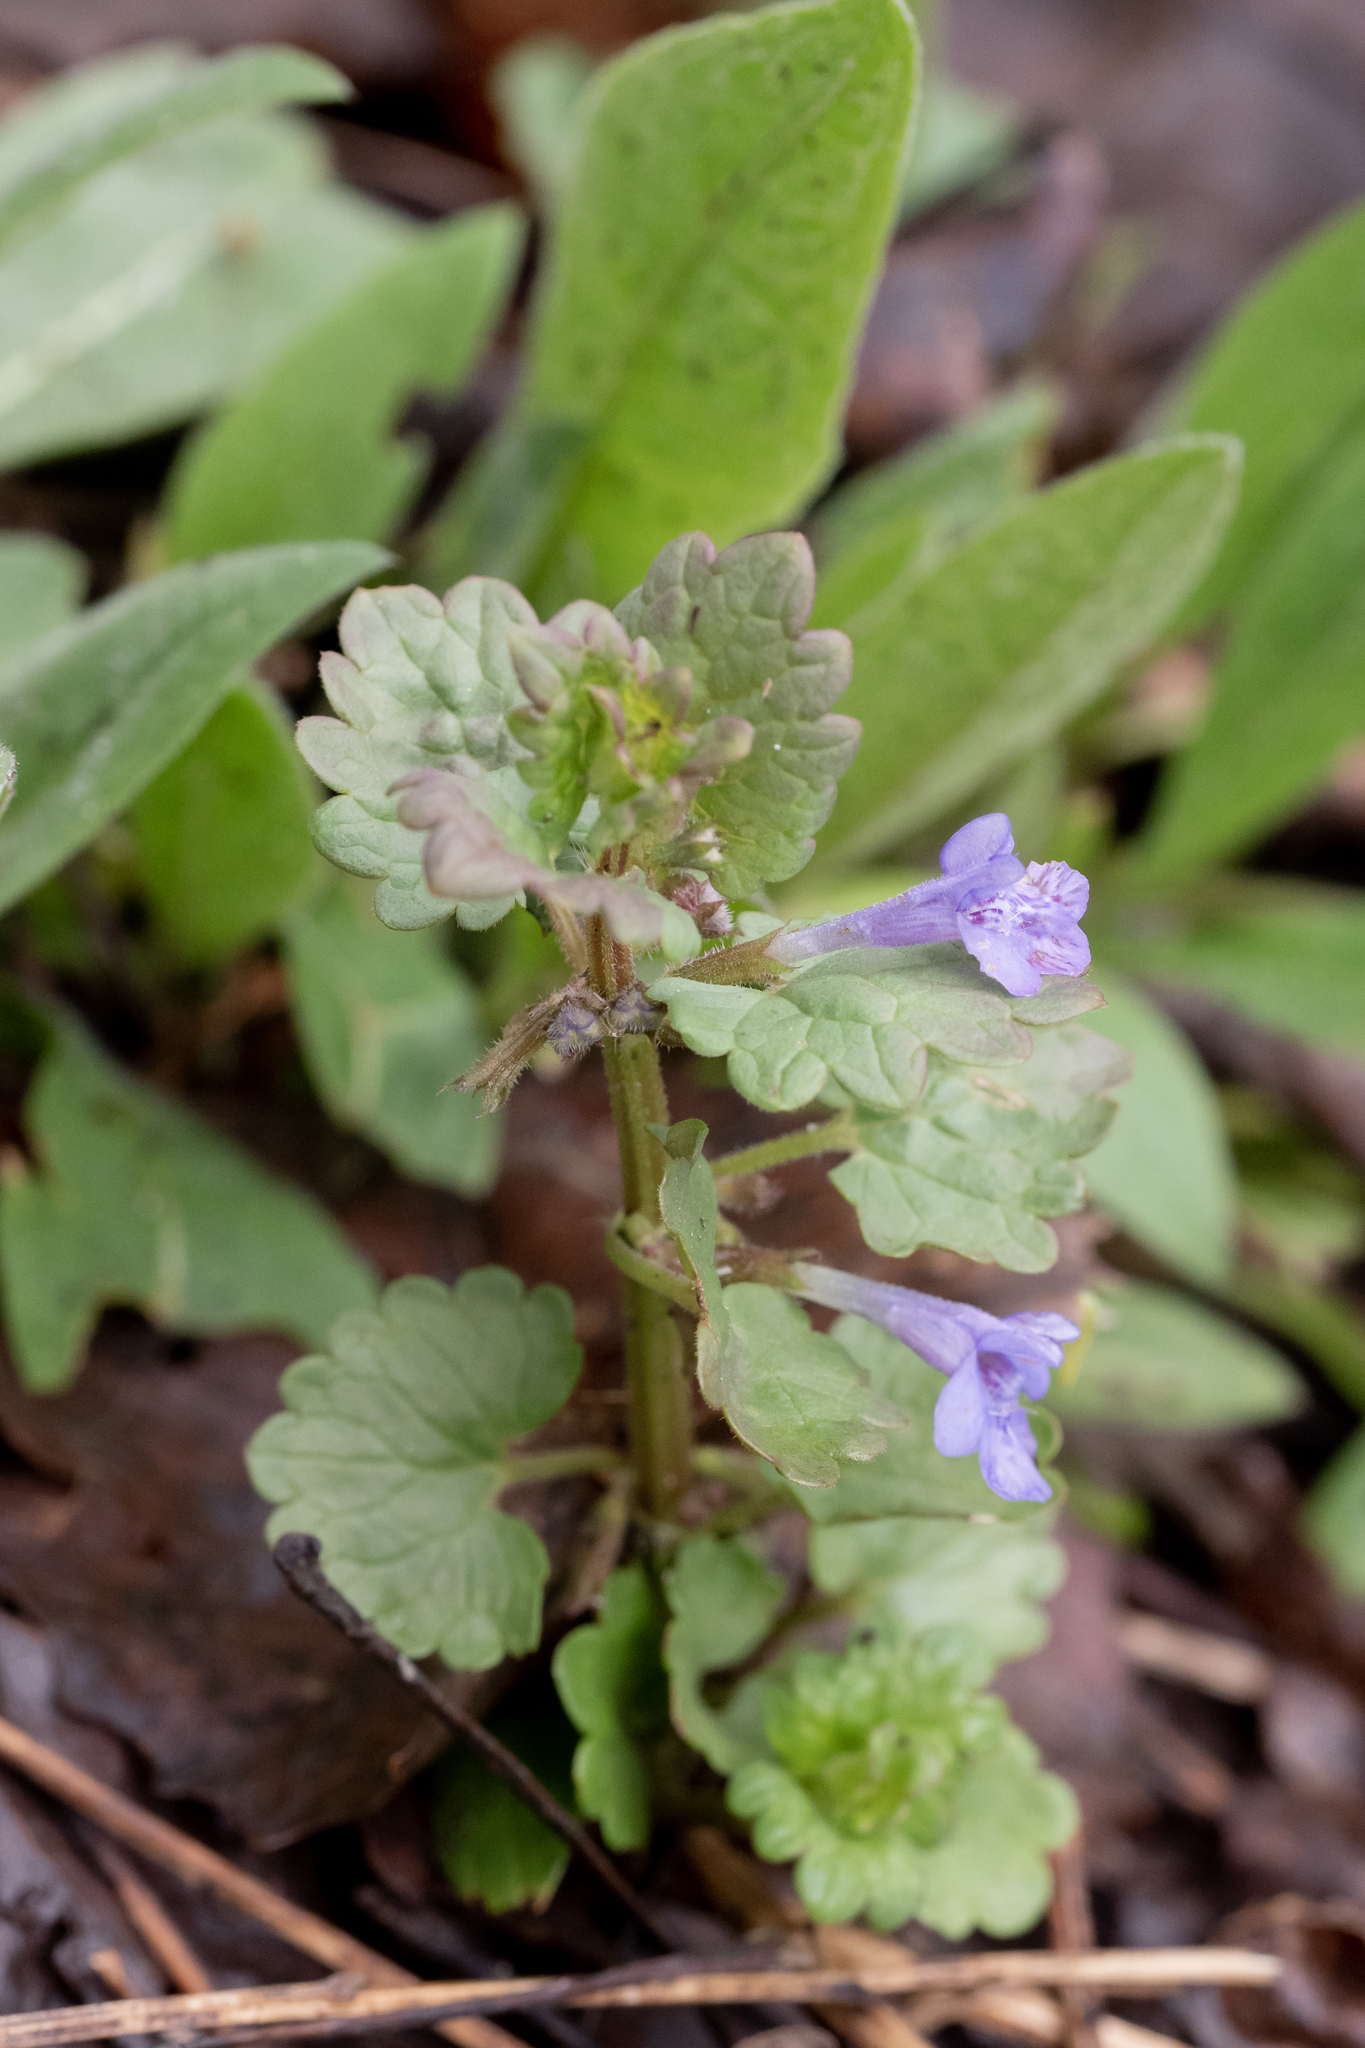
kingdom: Plantae
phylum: Tracheophyta
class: Magnoliopsida
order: Lamiales
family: Lamiaceae
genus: Glechoma
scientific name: Glechoma hederacea
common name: Ground ivy
